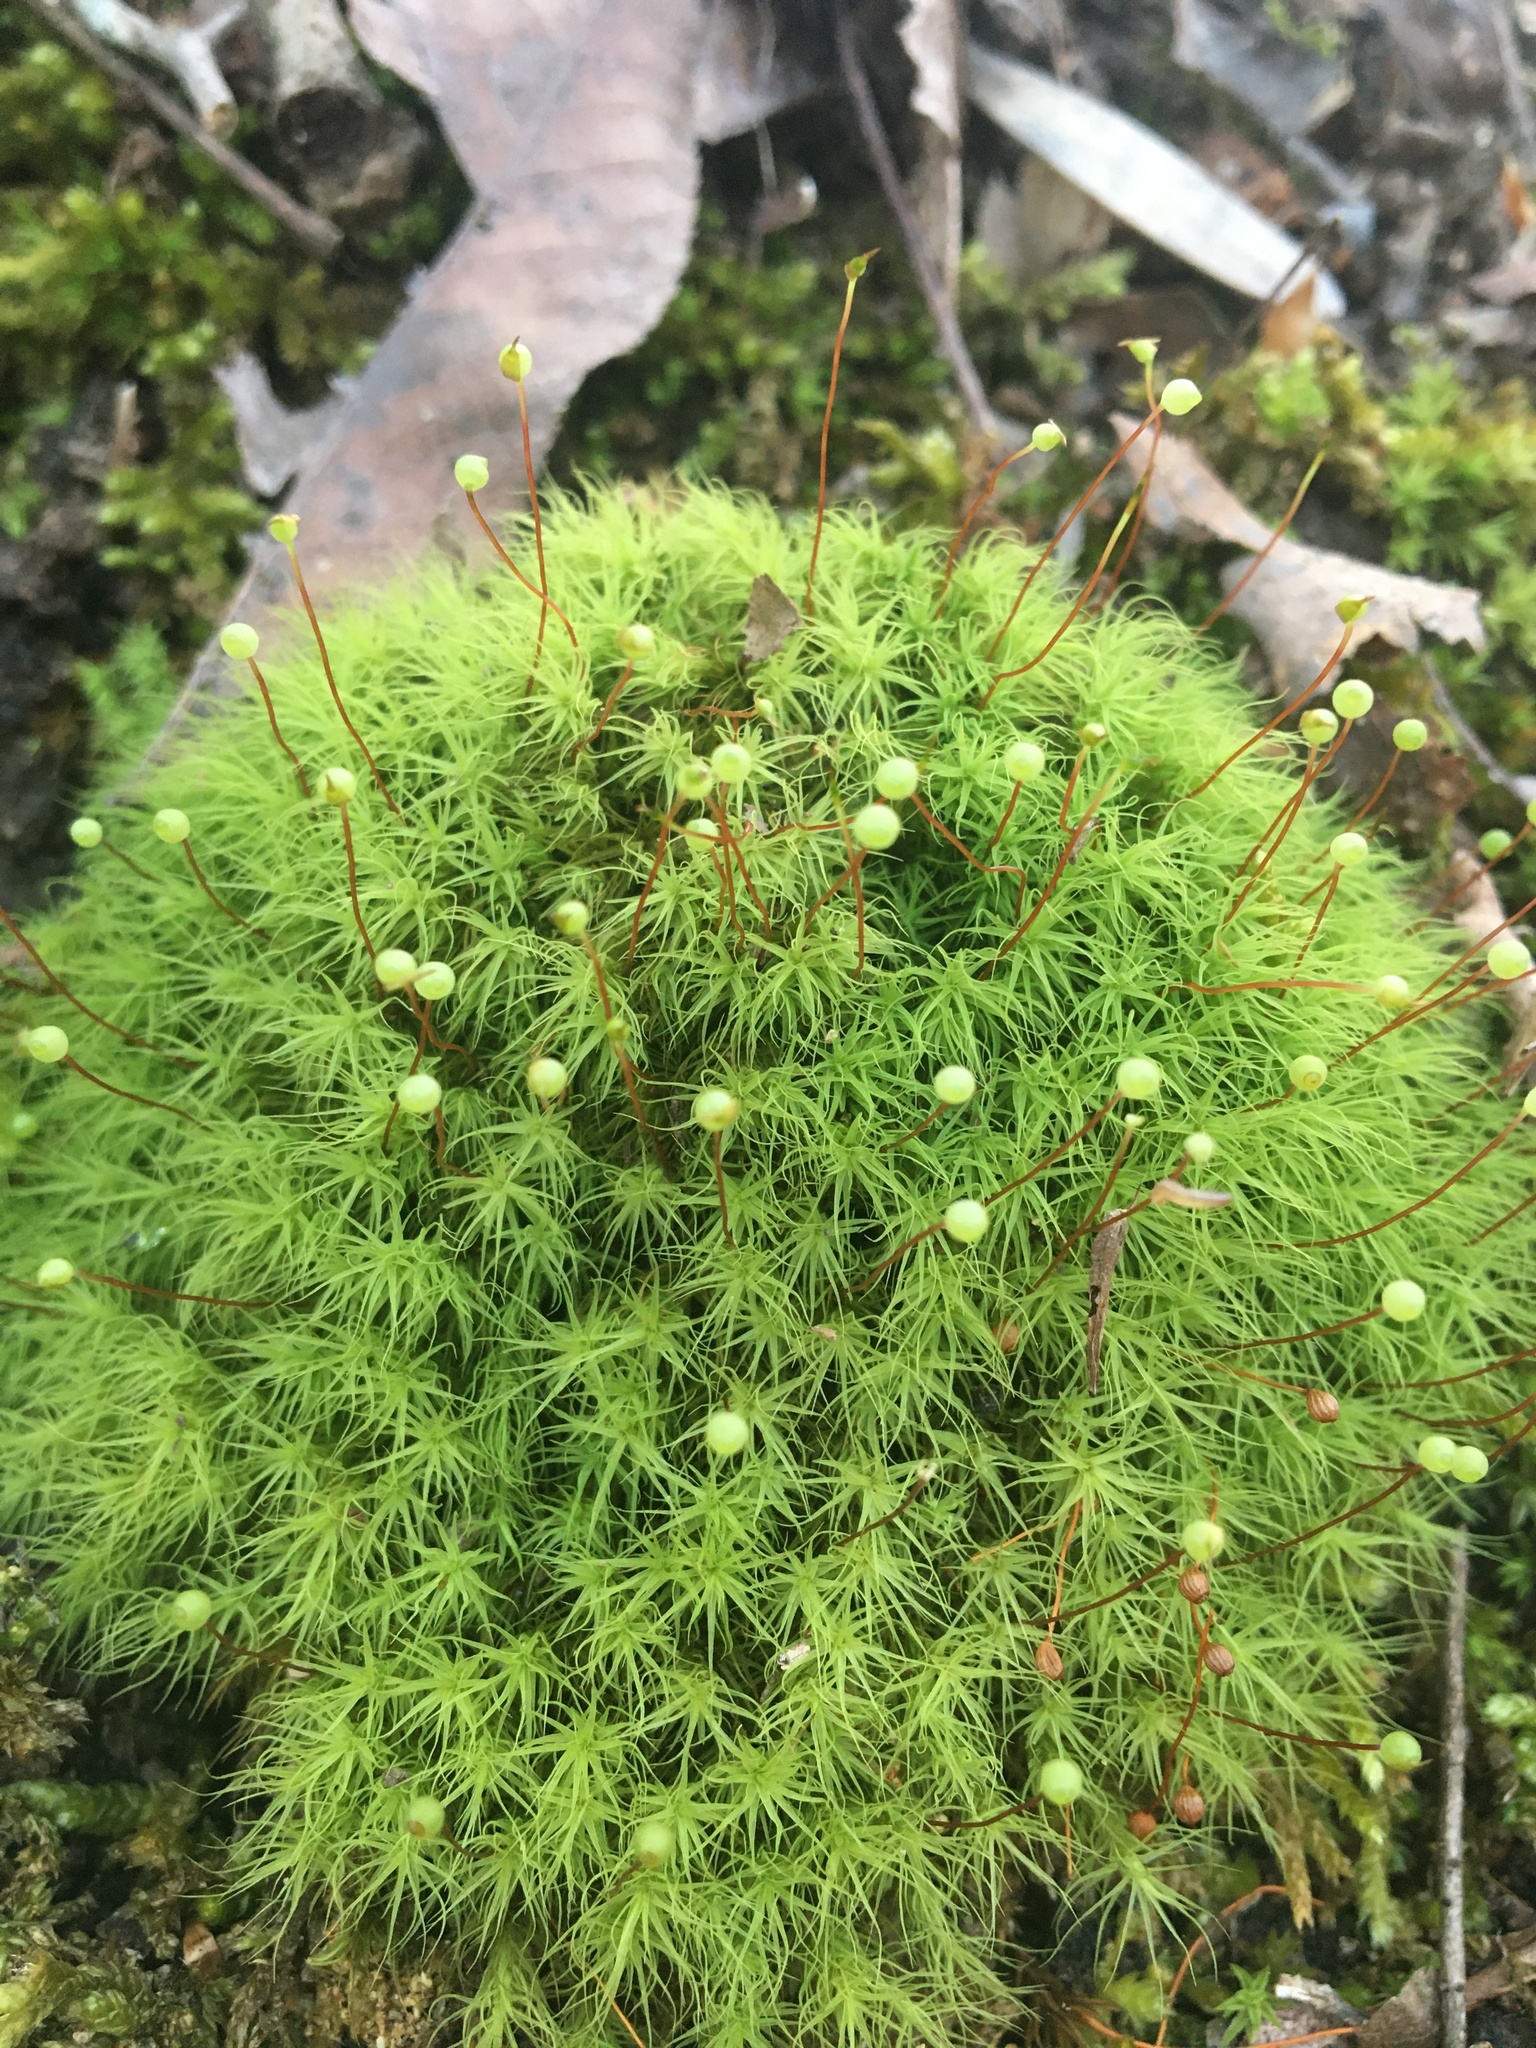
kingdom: Plantae
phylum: Bryophyta
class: Bryopsida
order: Bartramiales
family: Bartramiaceae
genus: Bartramia
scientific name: Bartramia ithyphylla
